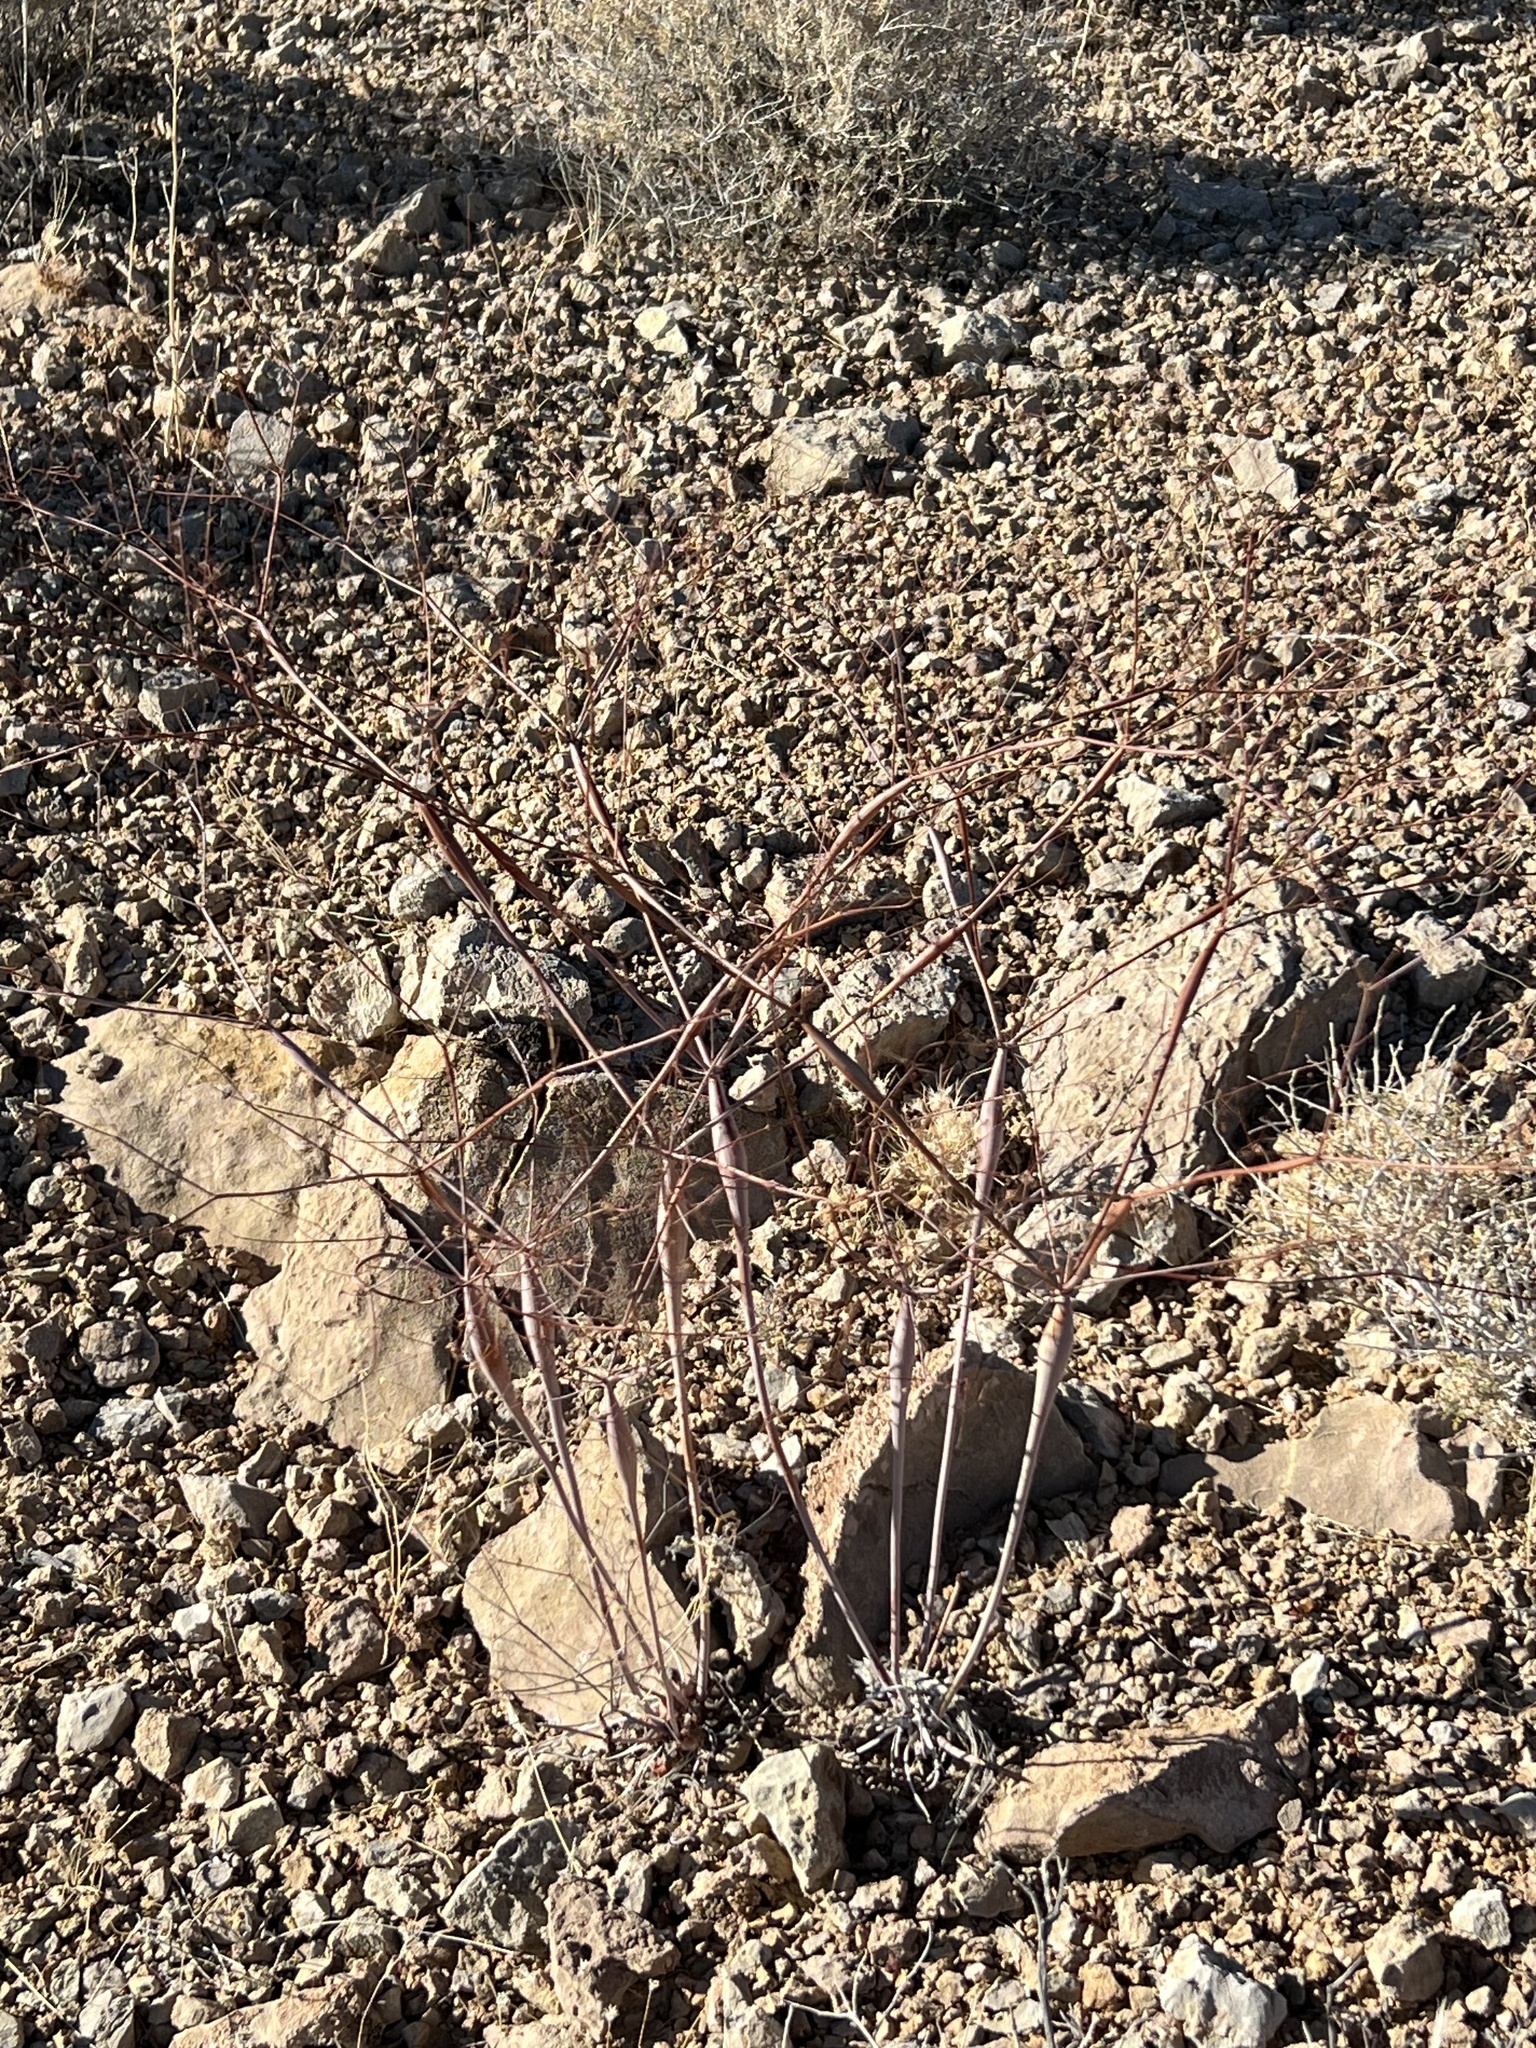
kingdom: Plantae
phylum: Tracheophyta
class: Magnoliopsida
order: Caryophyllales
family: Polygonaceae
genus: Eriogonum
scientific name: Eriogonum inflatum
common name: Desert trumpet
